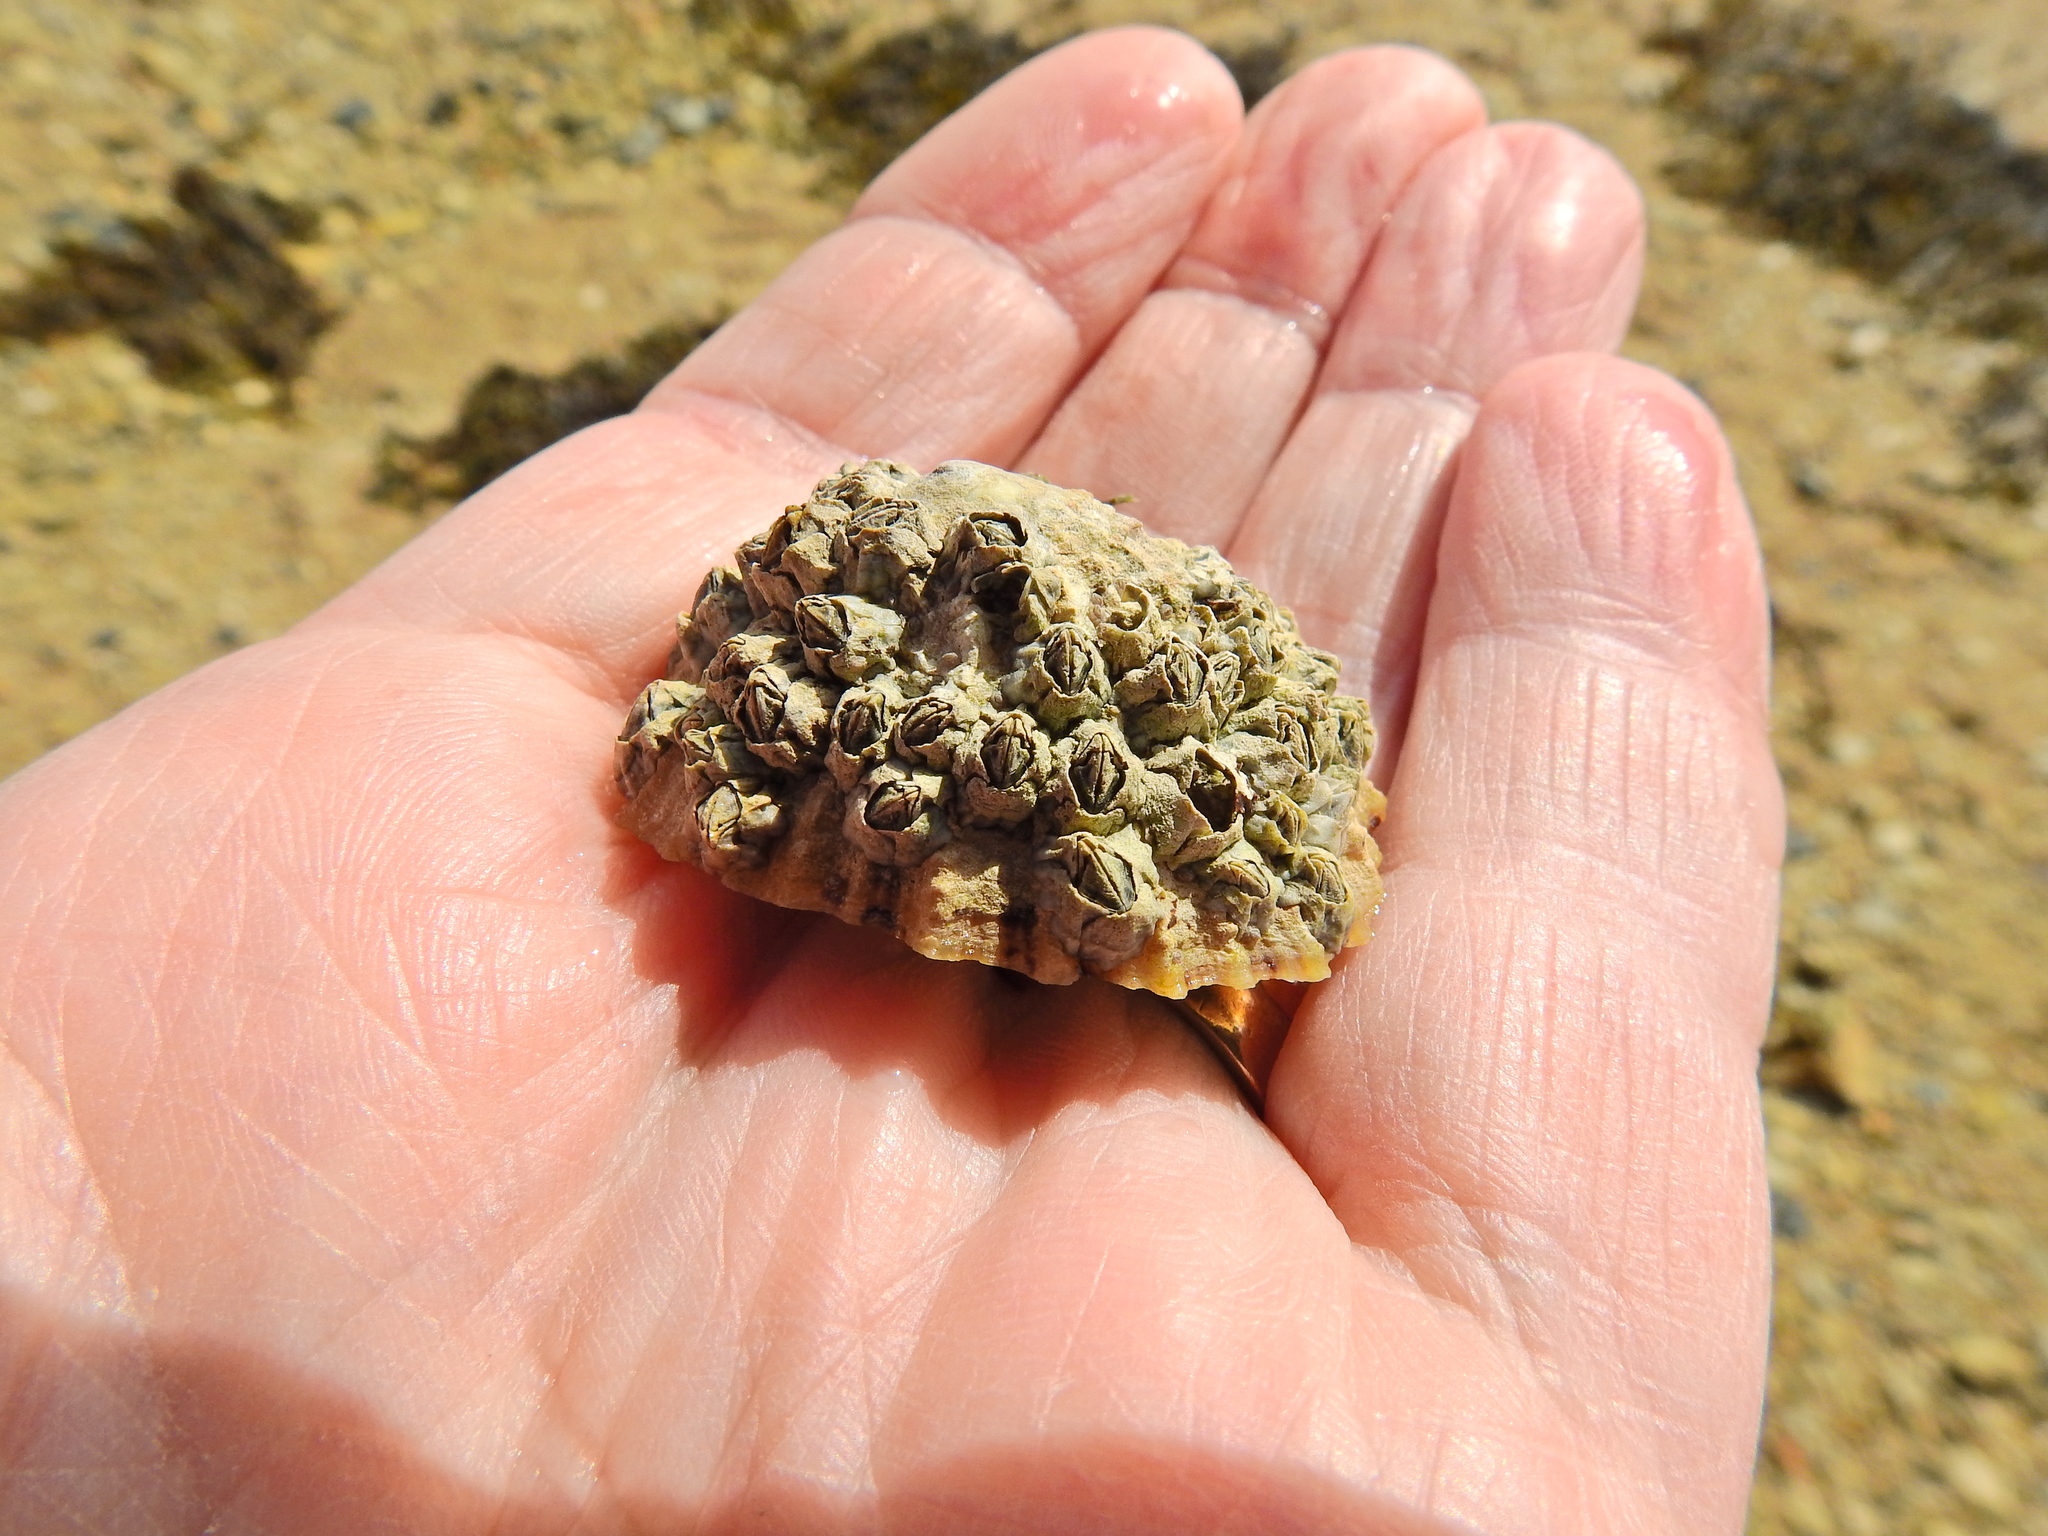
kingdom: Animalia
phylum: Arthropoda
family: Elminiidae
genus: Austrominius
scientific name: Austrominius modestus
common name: Australasian barnacle
